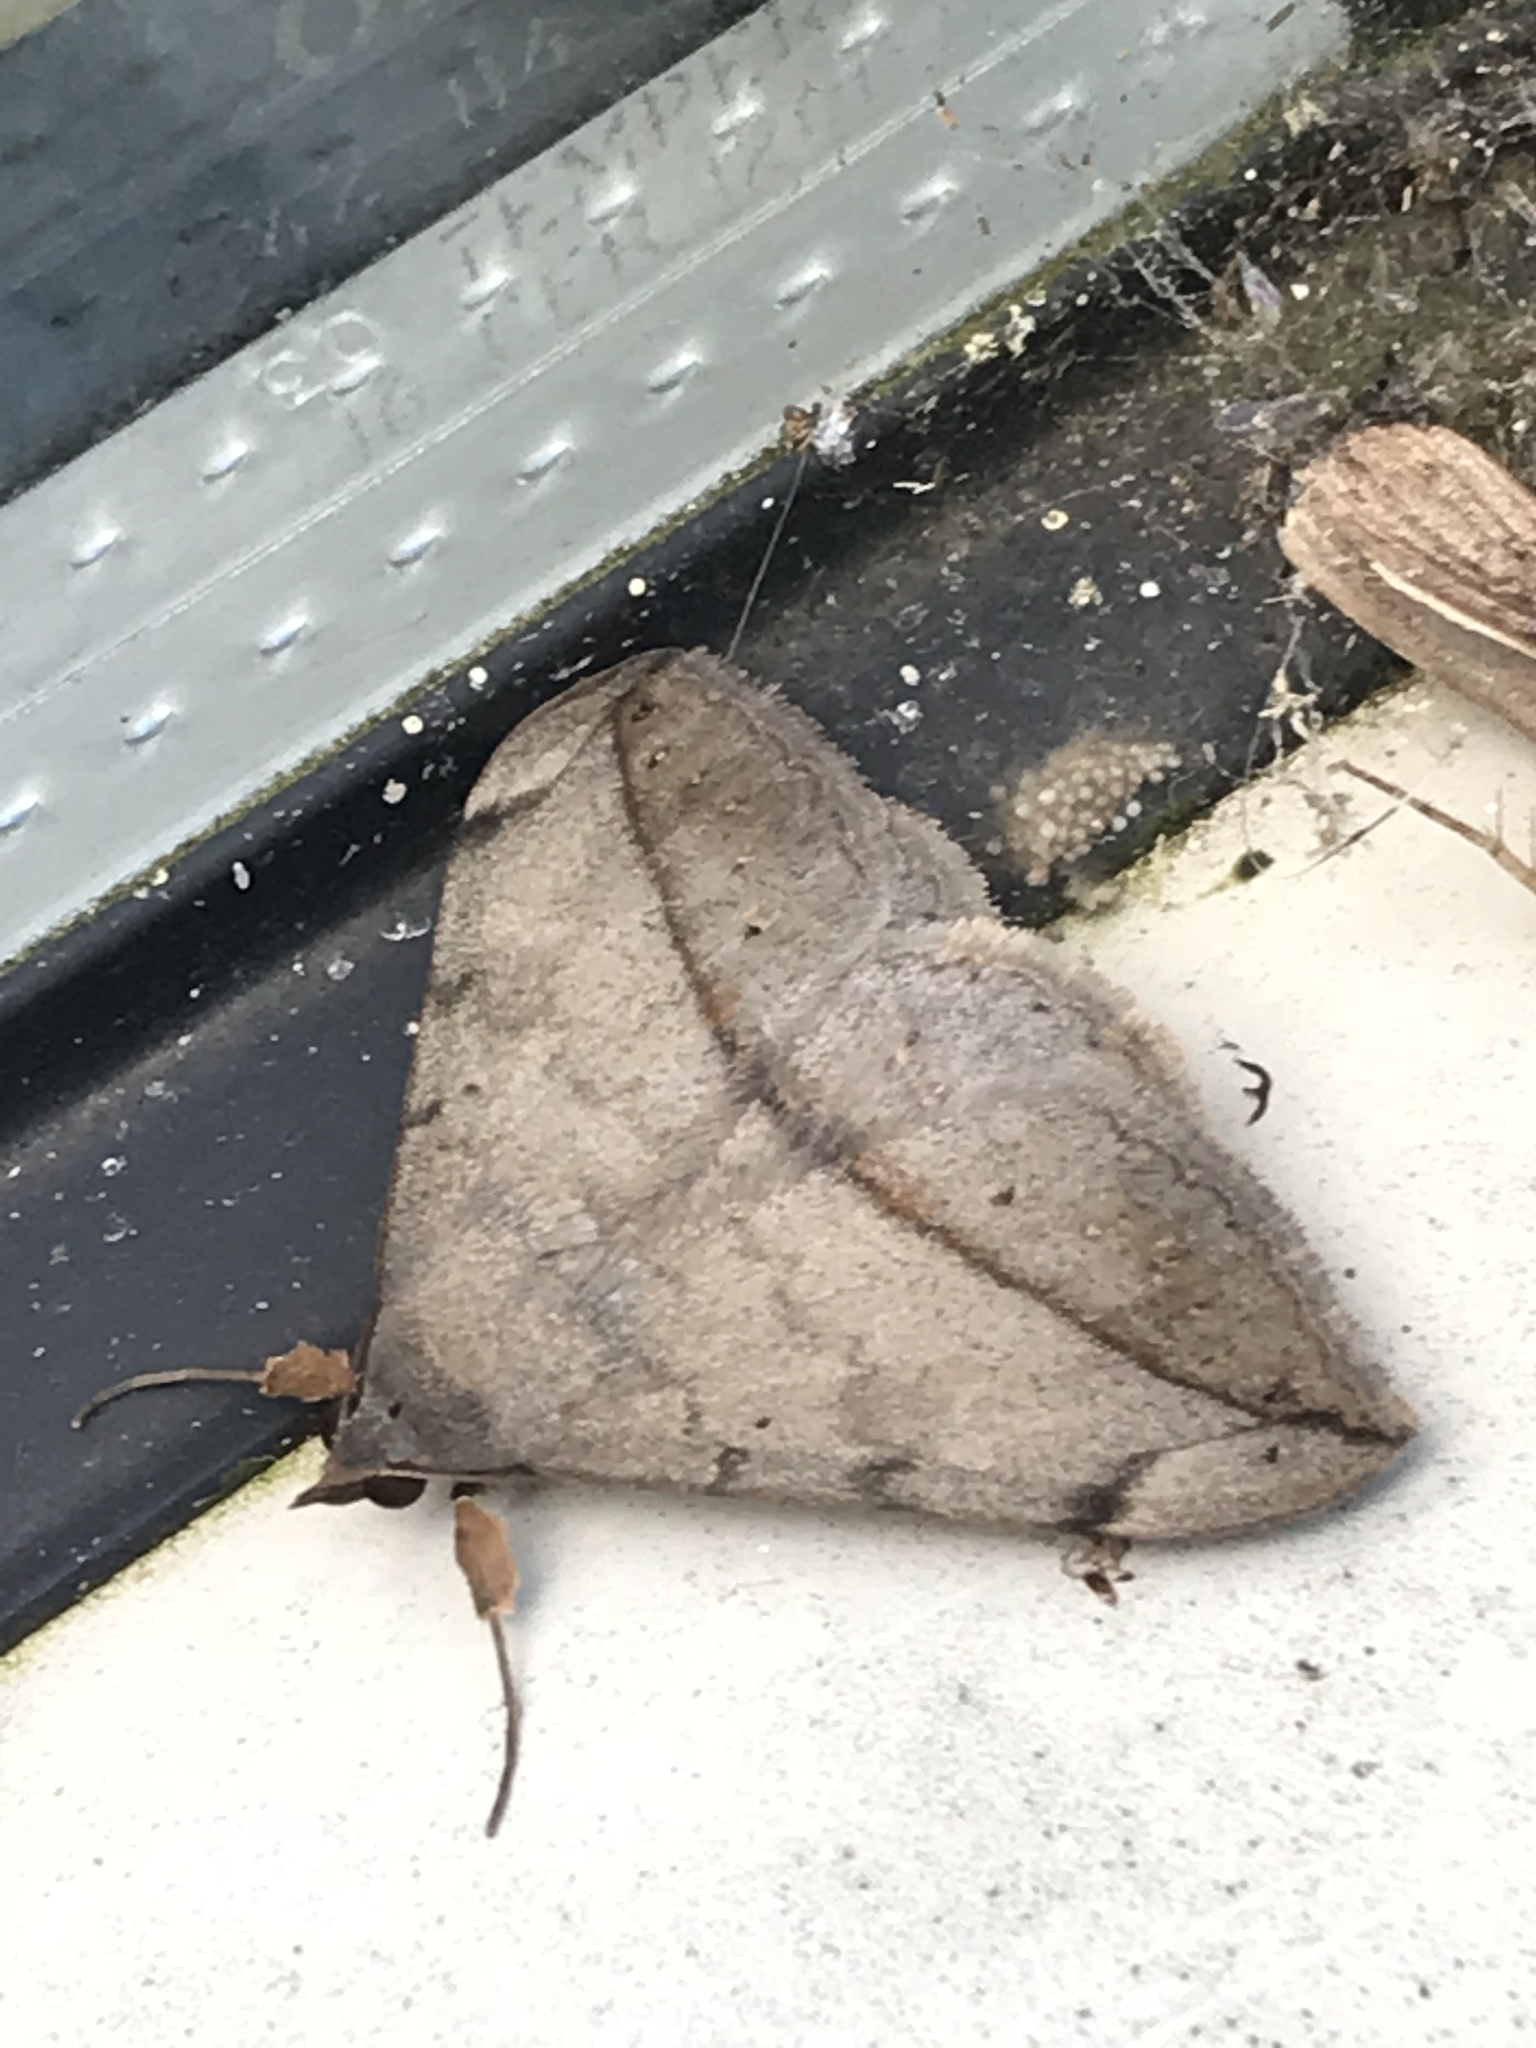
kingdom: Animalia
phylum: Arthropoda
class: Insecta
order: Lepidoptera
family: Erebidae
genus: Anticarsia
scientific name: Anticarsia gemmatalis
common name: Cutworm moth
